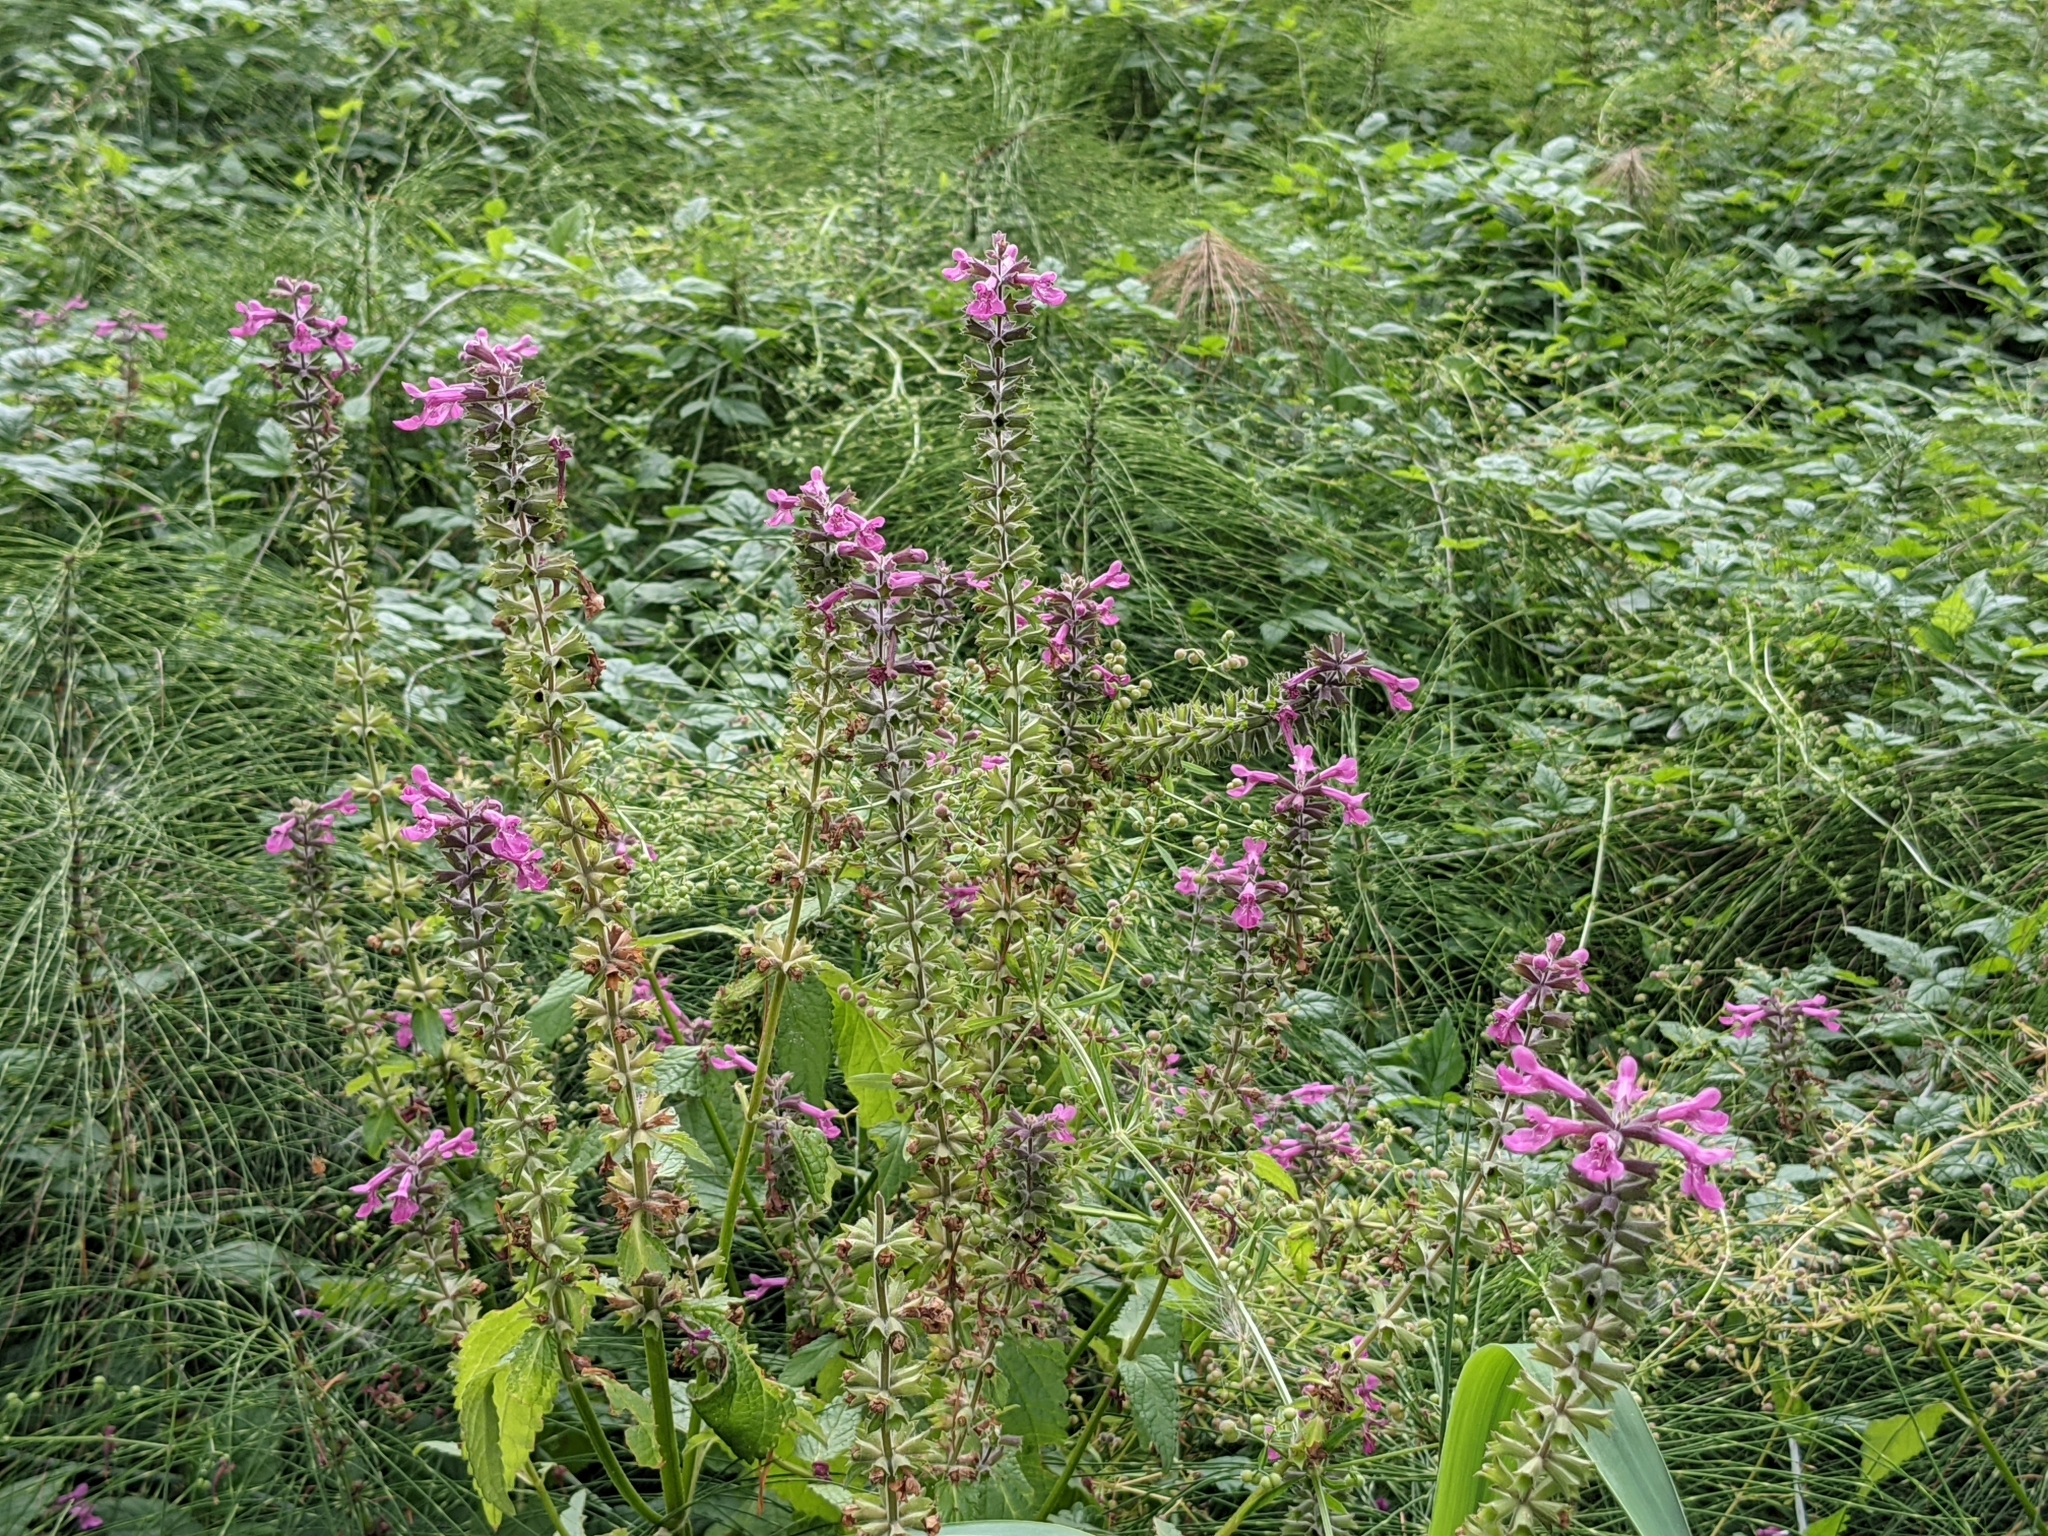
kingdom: Plantae
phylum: Tracheophyta
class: Magnoliopsida
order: Lamiales
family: Lamiaceae
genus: Stachys
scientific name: Stachys chamissonis
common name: Coastal hedge-nettle
